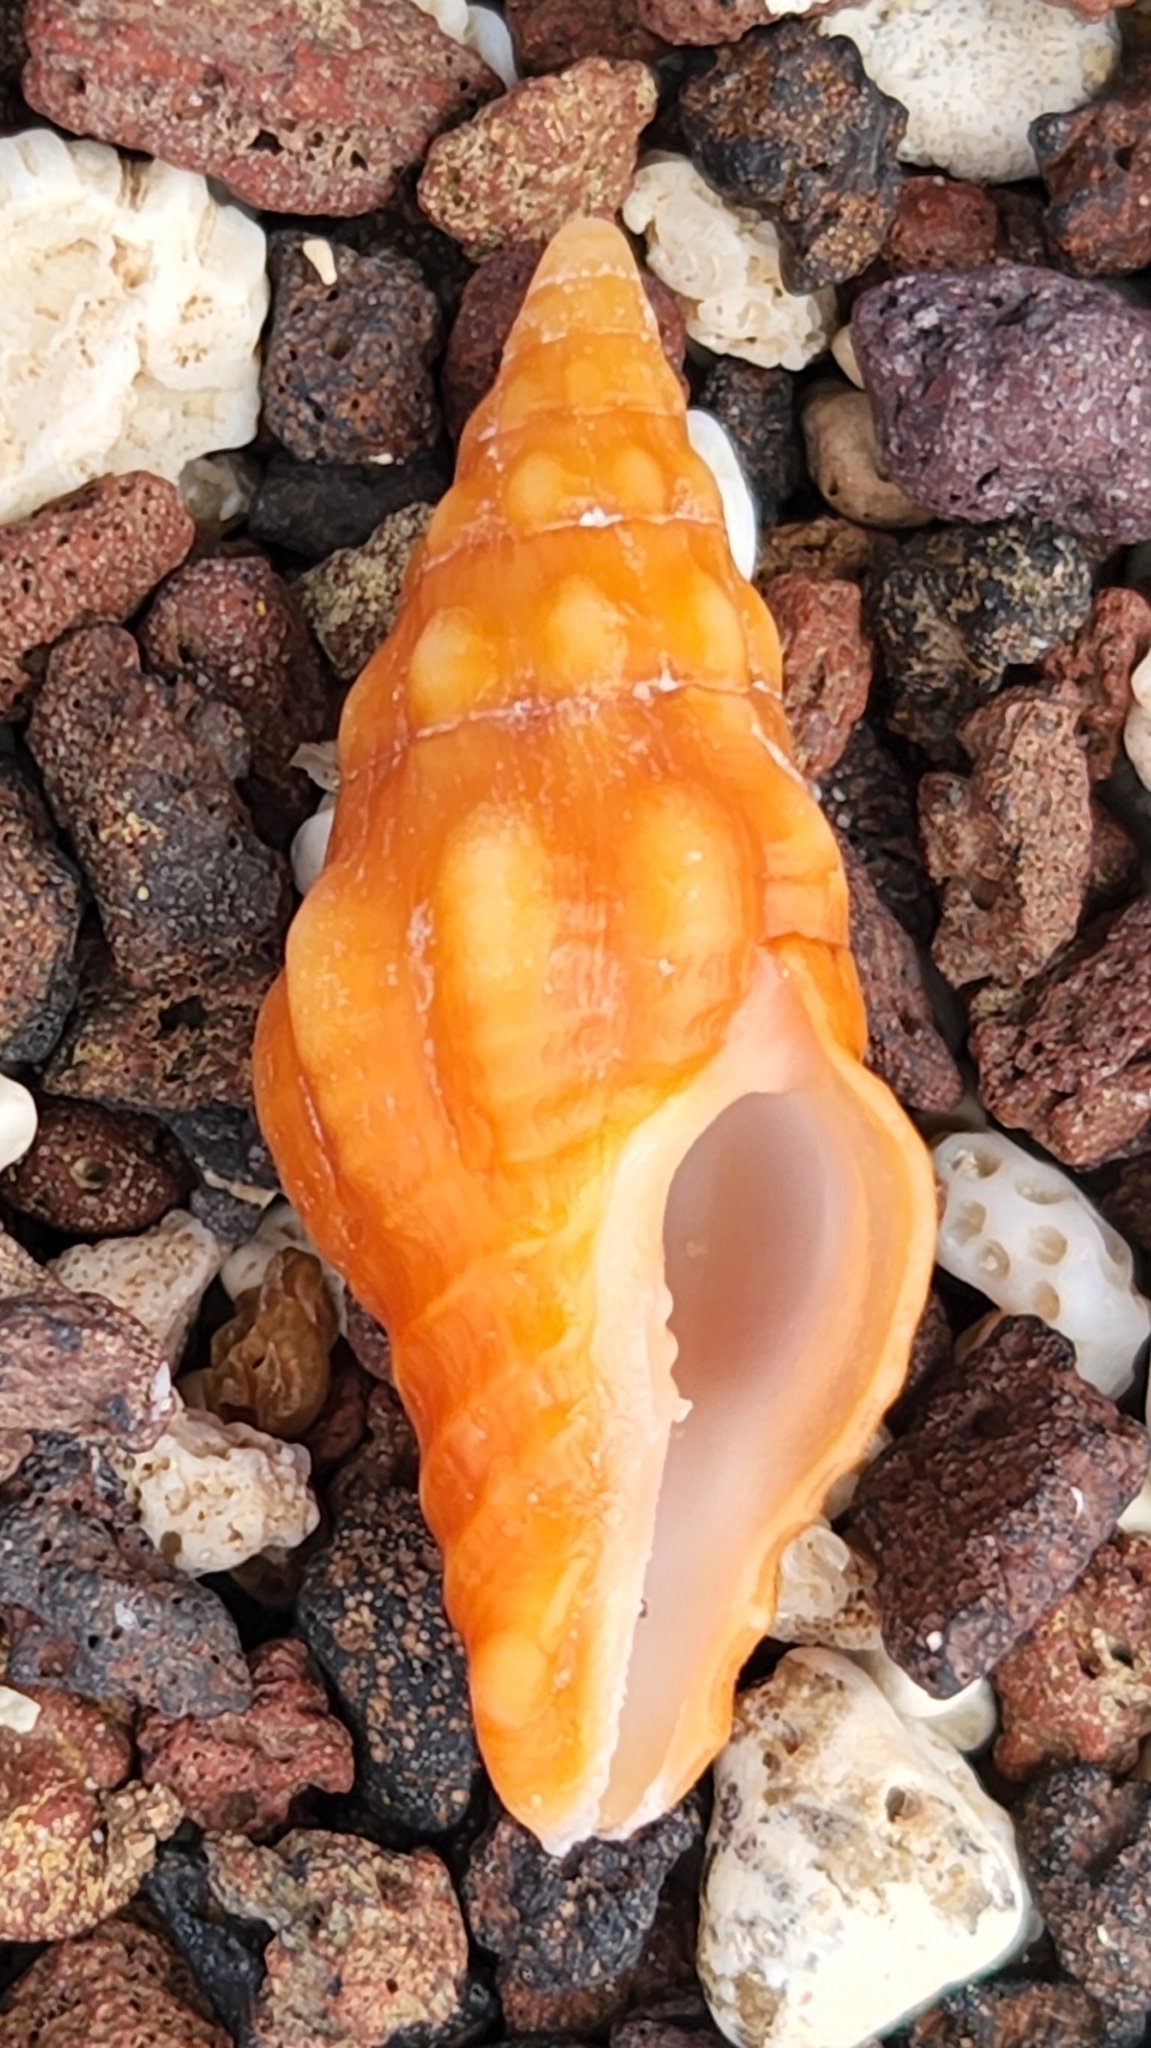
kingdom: Animalia
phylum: Mollusca
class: Gastropoda
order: Neogastropoda
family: Fasciolariidae
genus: Polygona
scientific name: Polygona socorroensis
